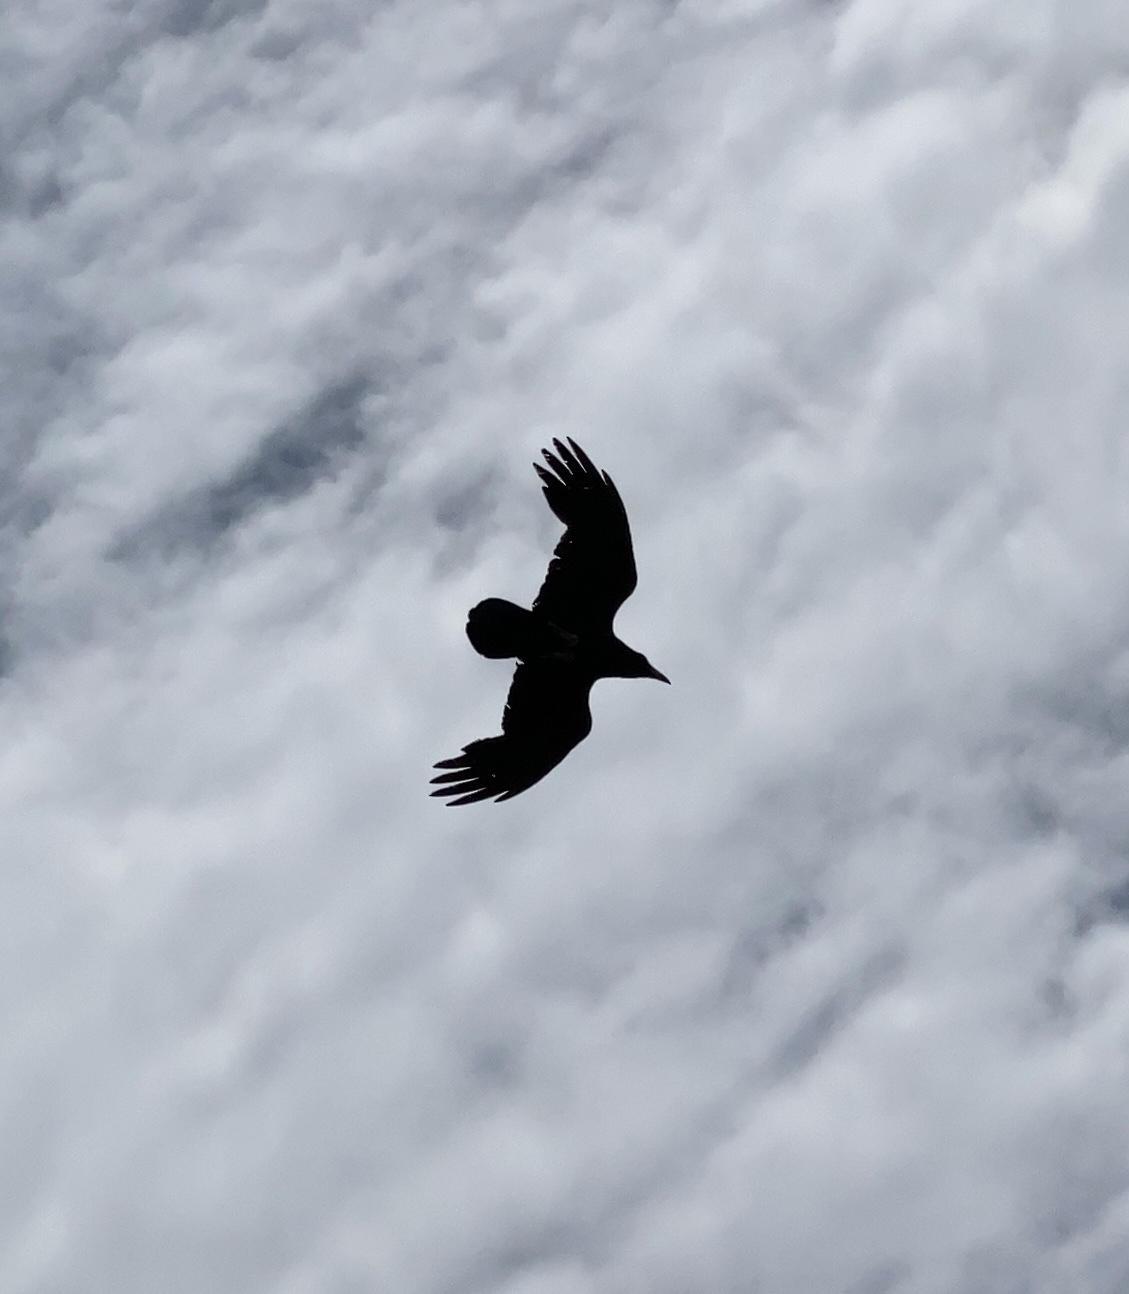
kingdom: Animalia
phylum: Chordata
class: Aves
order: Passeriformes
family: Corvidae
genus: Corvus
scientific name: Corvus corax
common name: Common raven
